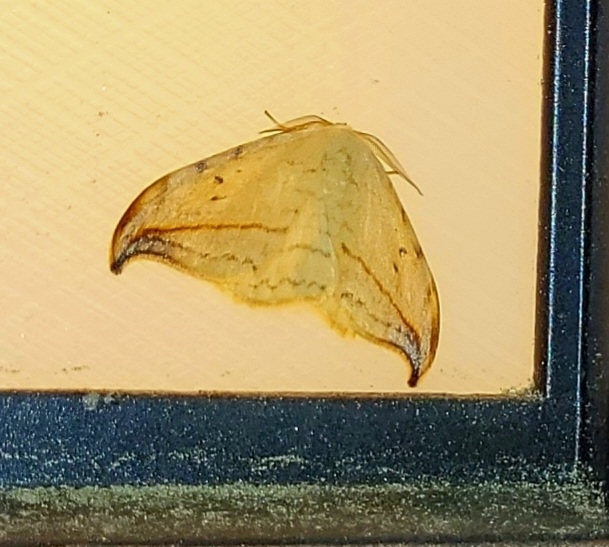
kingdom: Animalia
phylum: Arthropoda
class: Insecta
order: Lepidoptera
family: Drepanidae
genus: Drepana
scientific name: Drepana arcuata
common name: Arched hooktip moth
